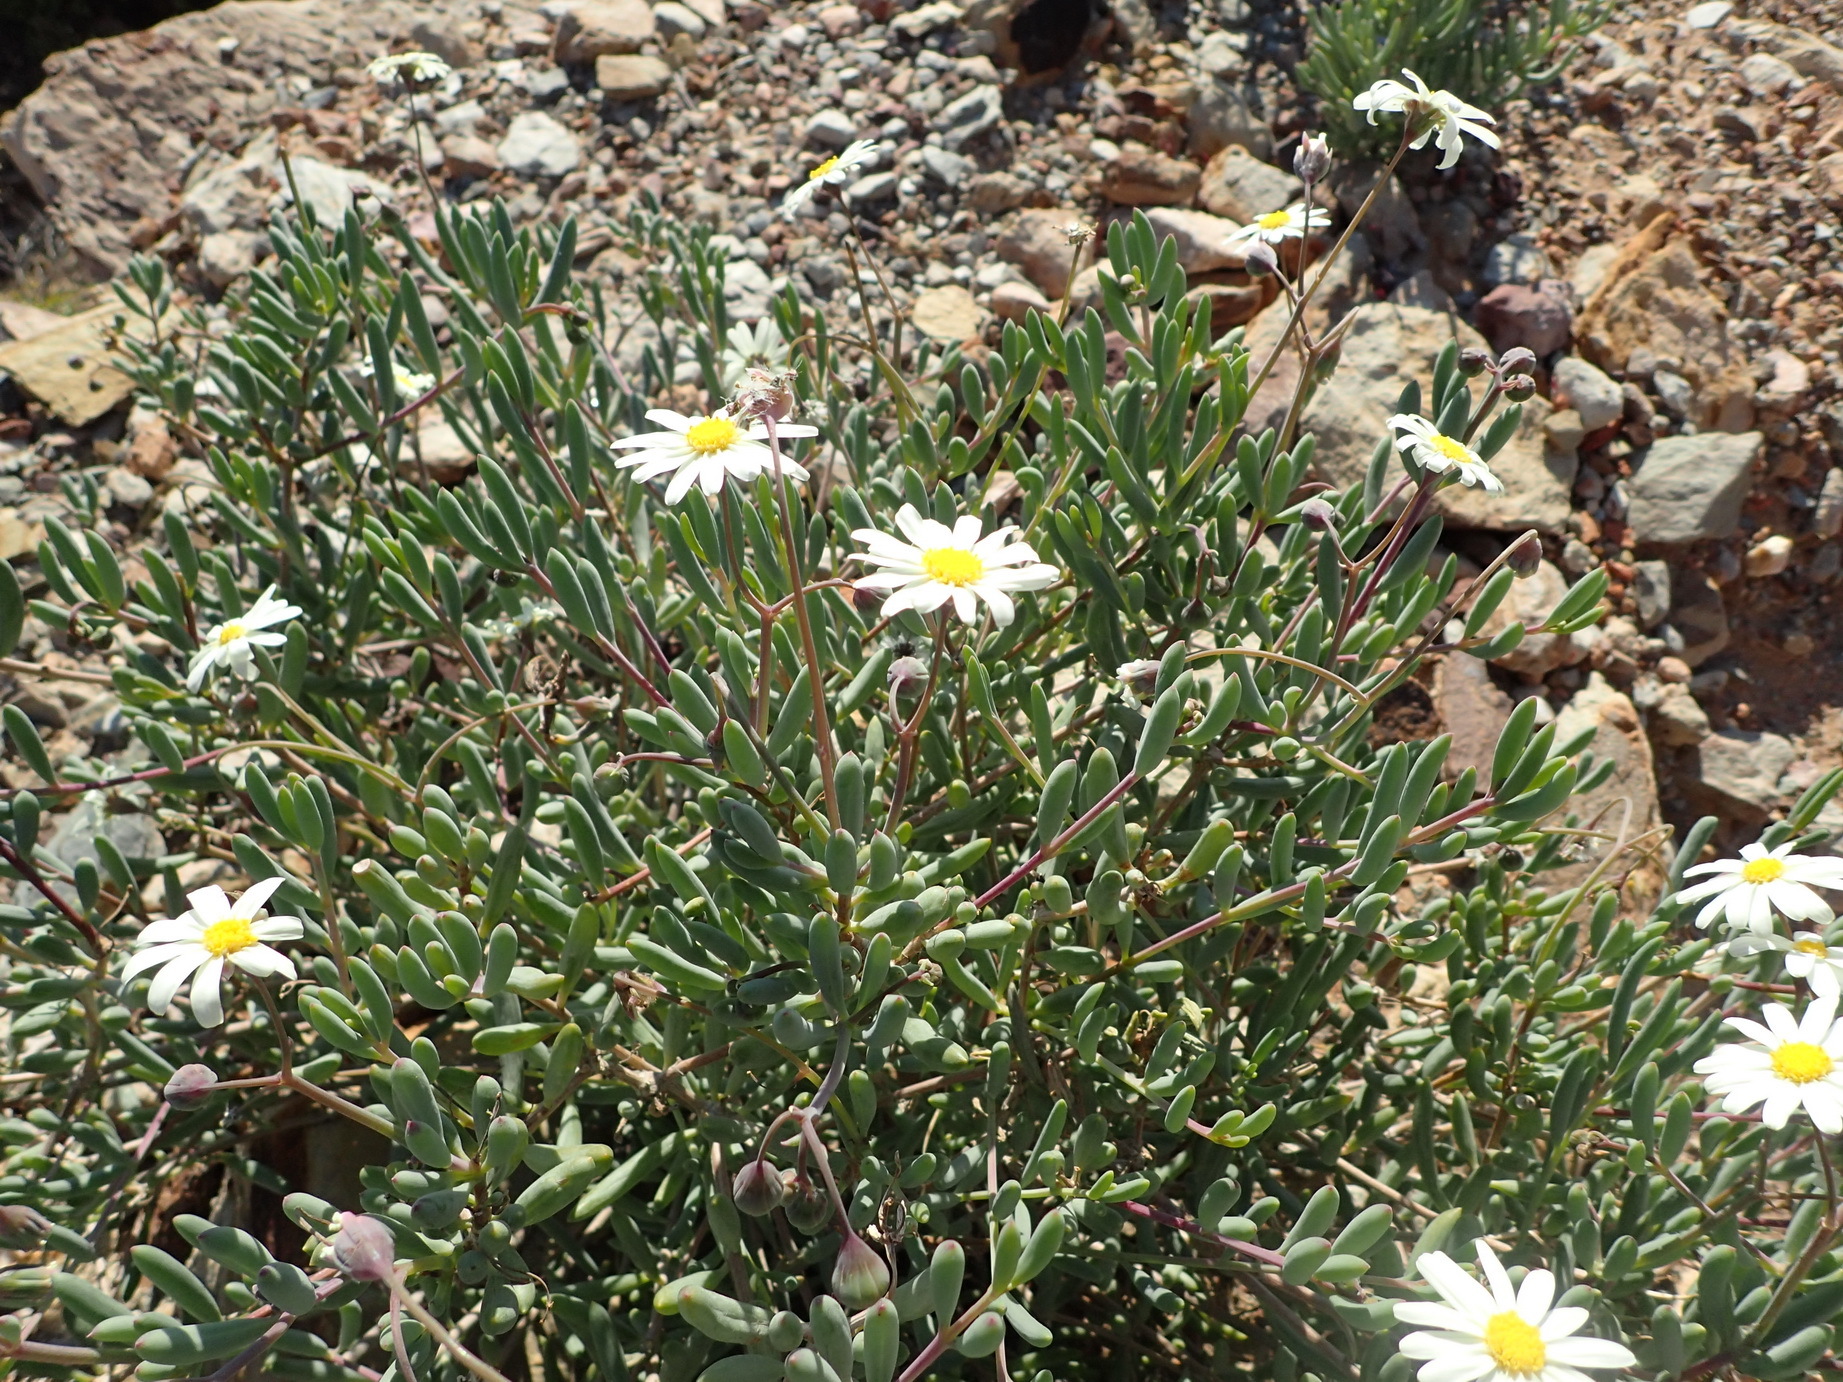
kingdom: Plantae
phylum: Tracheophyta
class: Magnoliopsida
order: Asterales
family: Asteraceae
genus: Crassothonna
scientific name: Crassothonna alba
